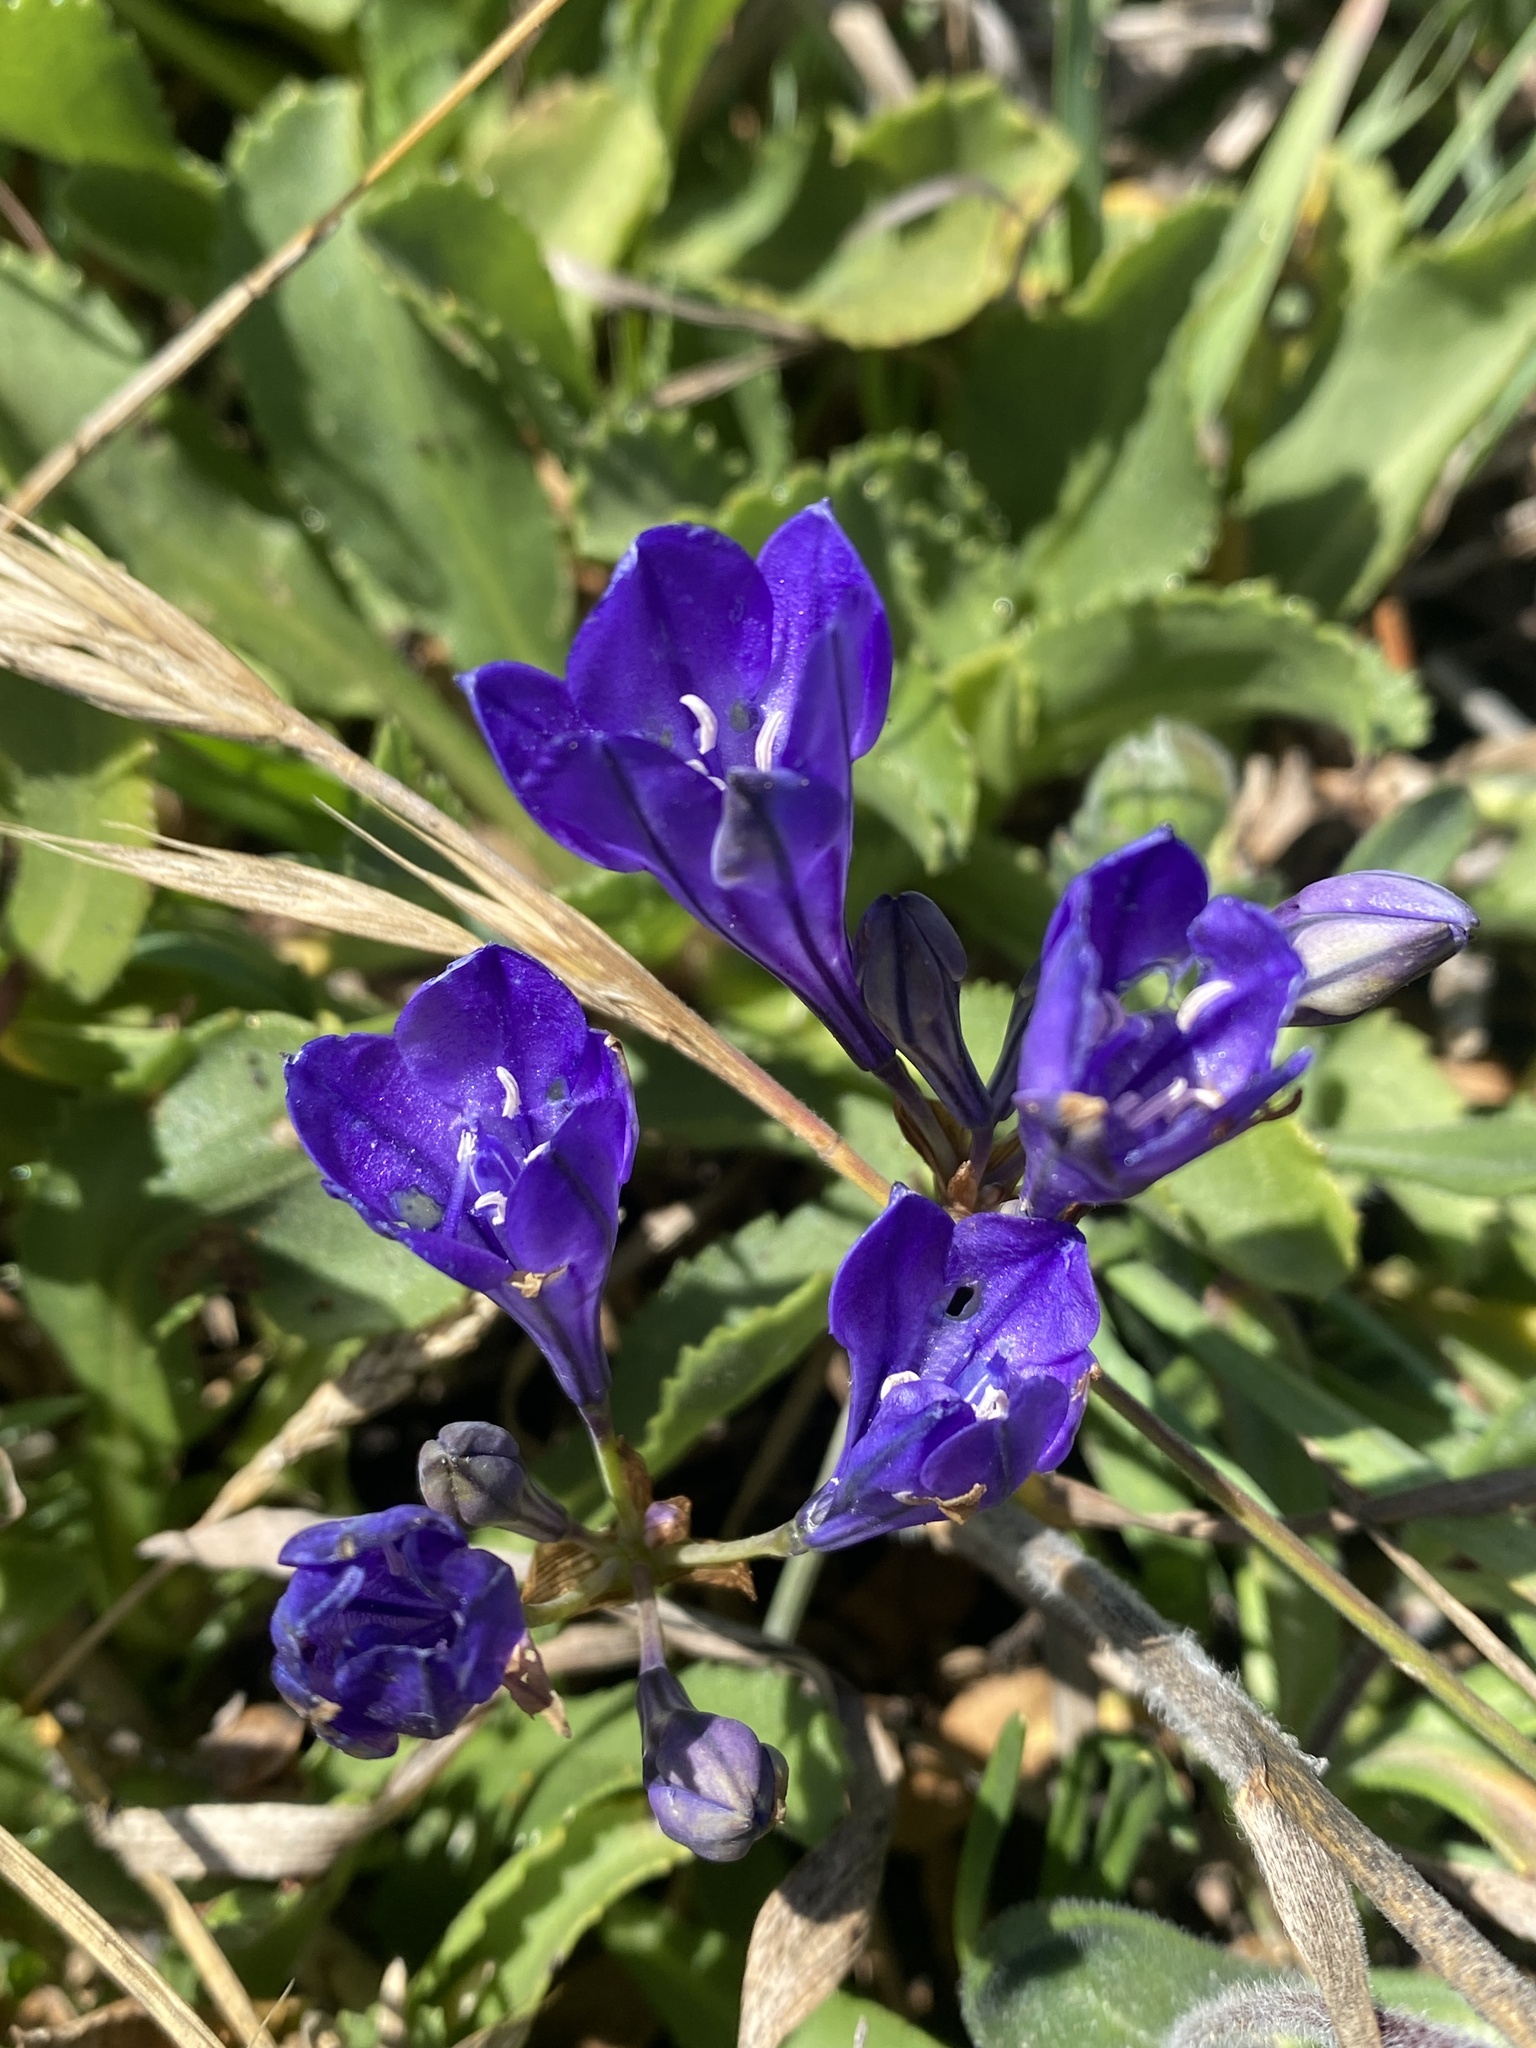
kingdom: Plantae
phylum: Tracheophyta
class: Liliopsida
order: Asparagales
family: Asparagaceae
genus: Triteleia
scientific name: Triteleia laxa
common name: Triplet-lily
